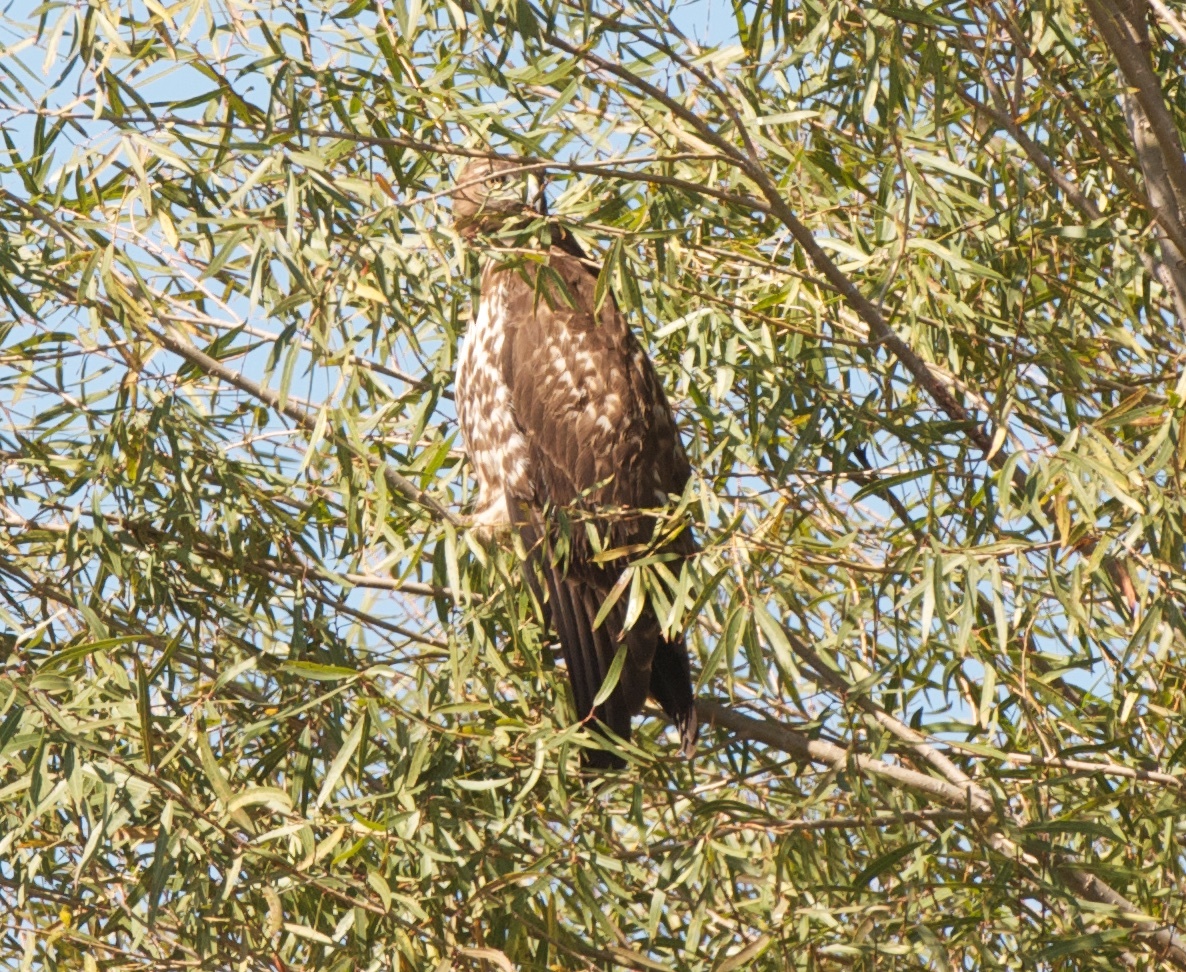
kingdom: Animalia
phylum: Chordata
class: Aves
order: Accipitriformes
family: Accipitridae
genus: Buteo
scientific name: Buteo jamaicensis
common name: Red-tailed hawk
